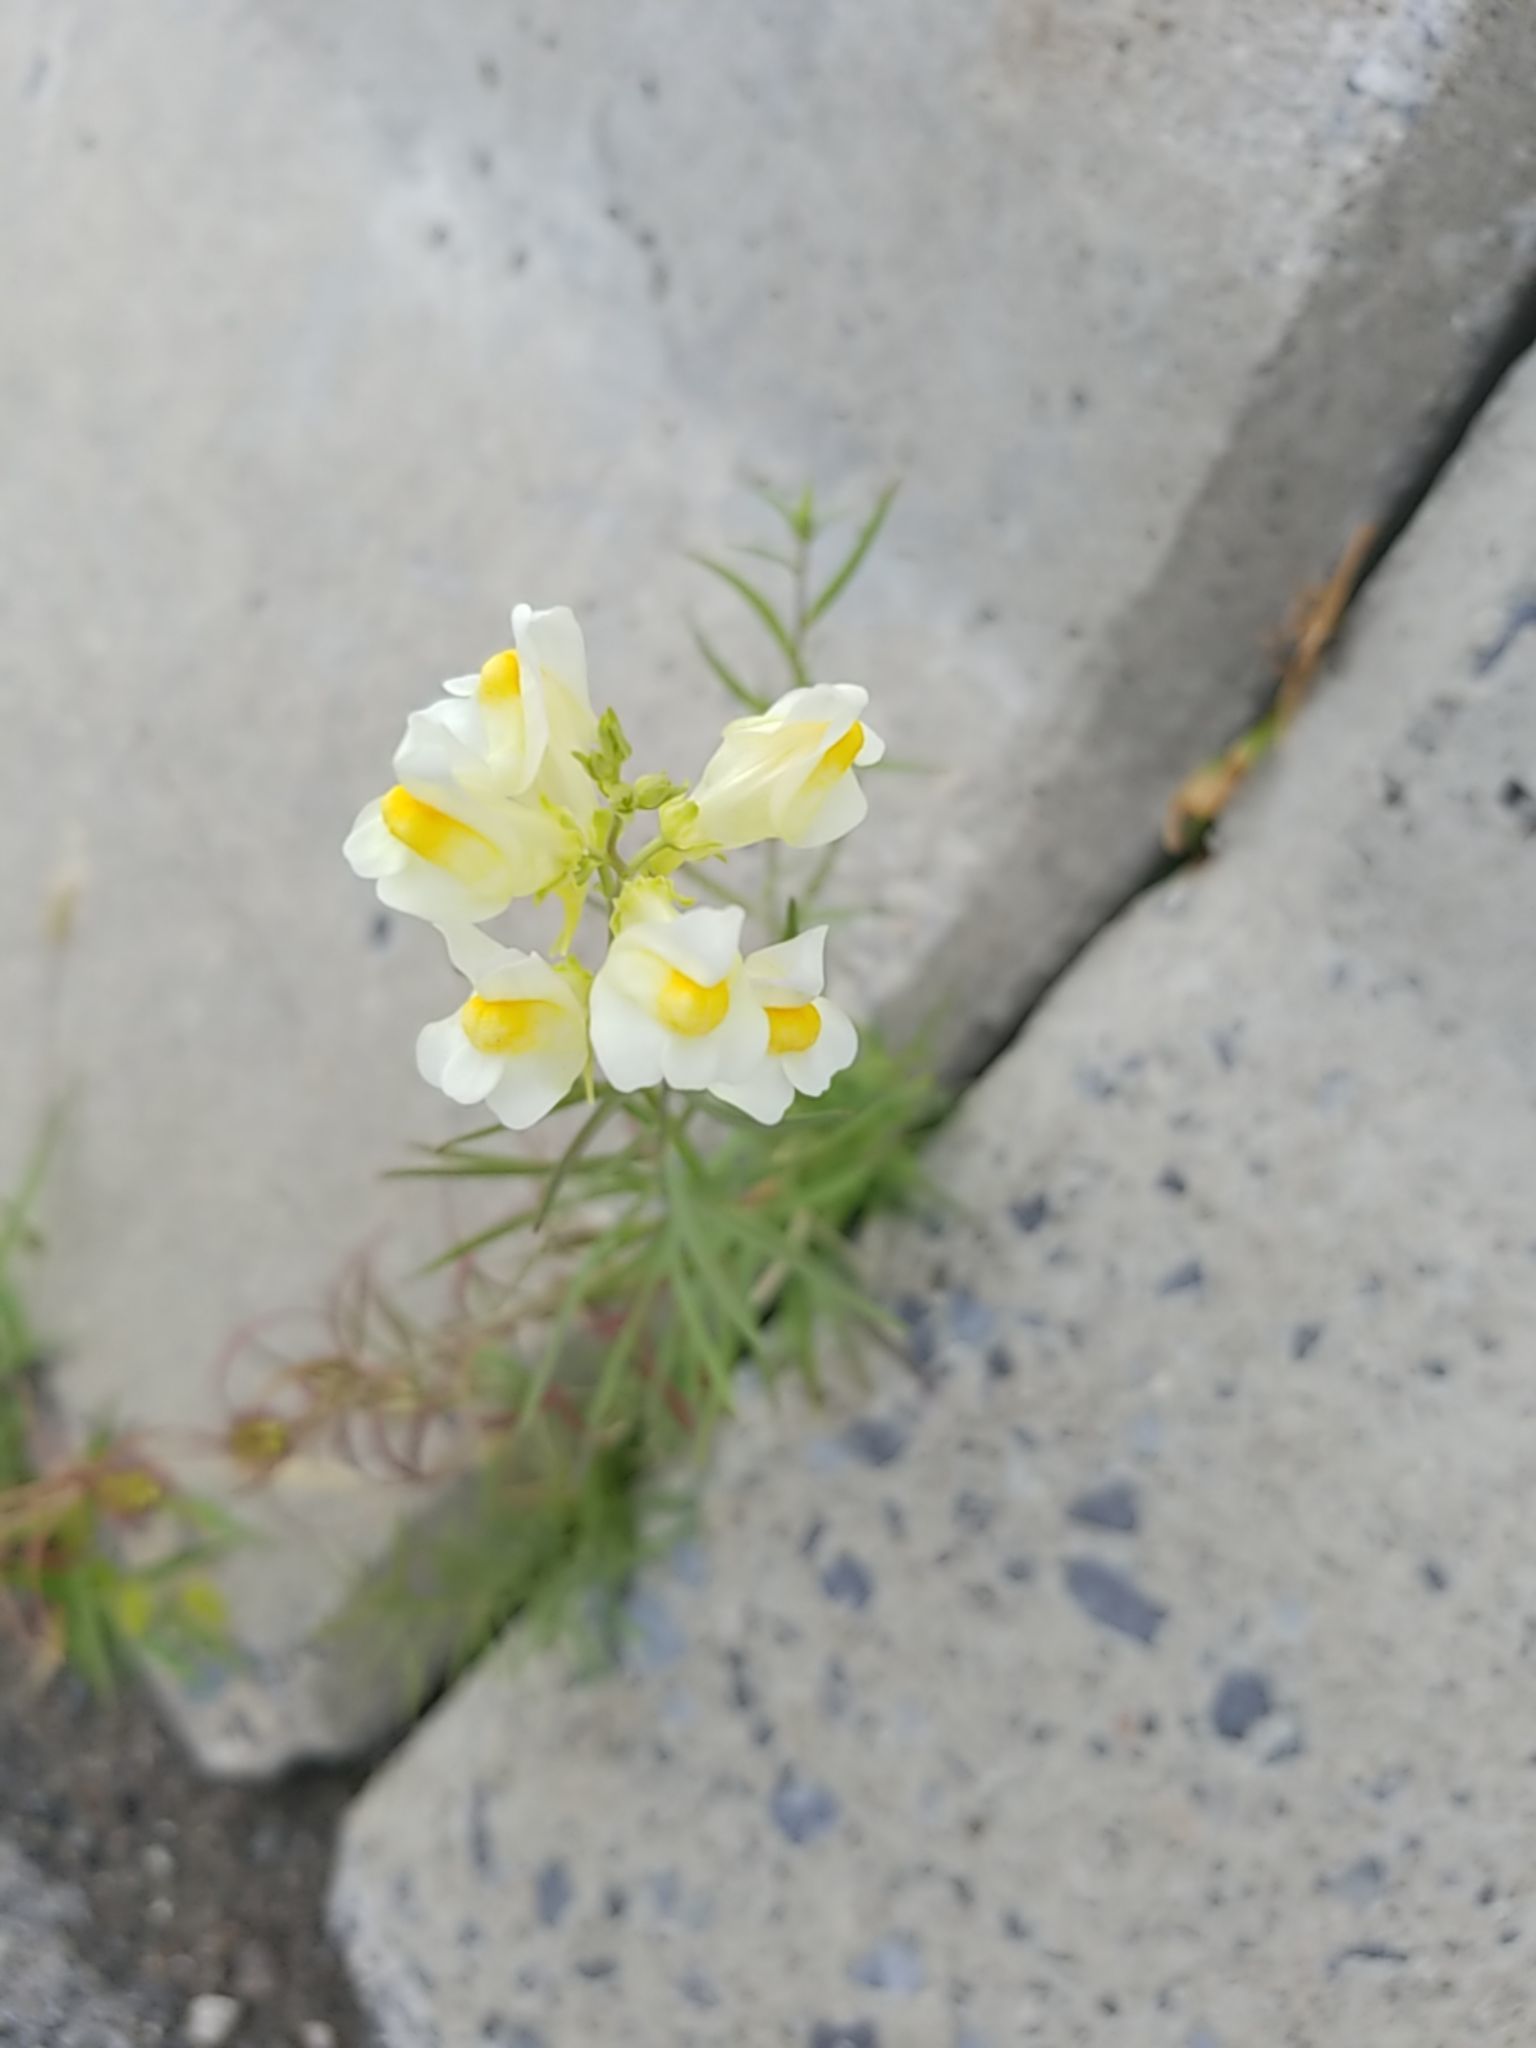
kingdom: Plantae
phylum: Tracheophyta
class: Magnoliopsida
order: Lamiales
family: Plantaginaceae
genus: Linaria
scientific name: Linaria vulgaris
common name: Butter and eggs
